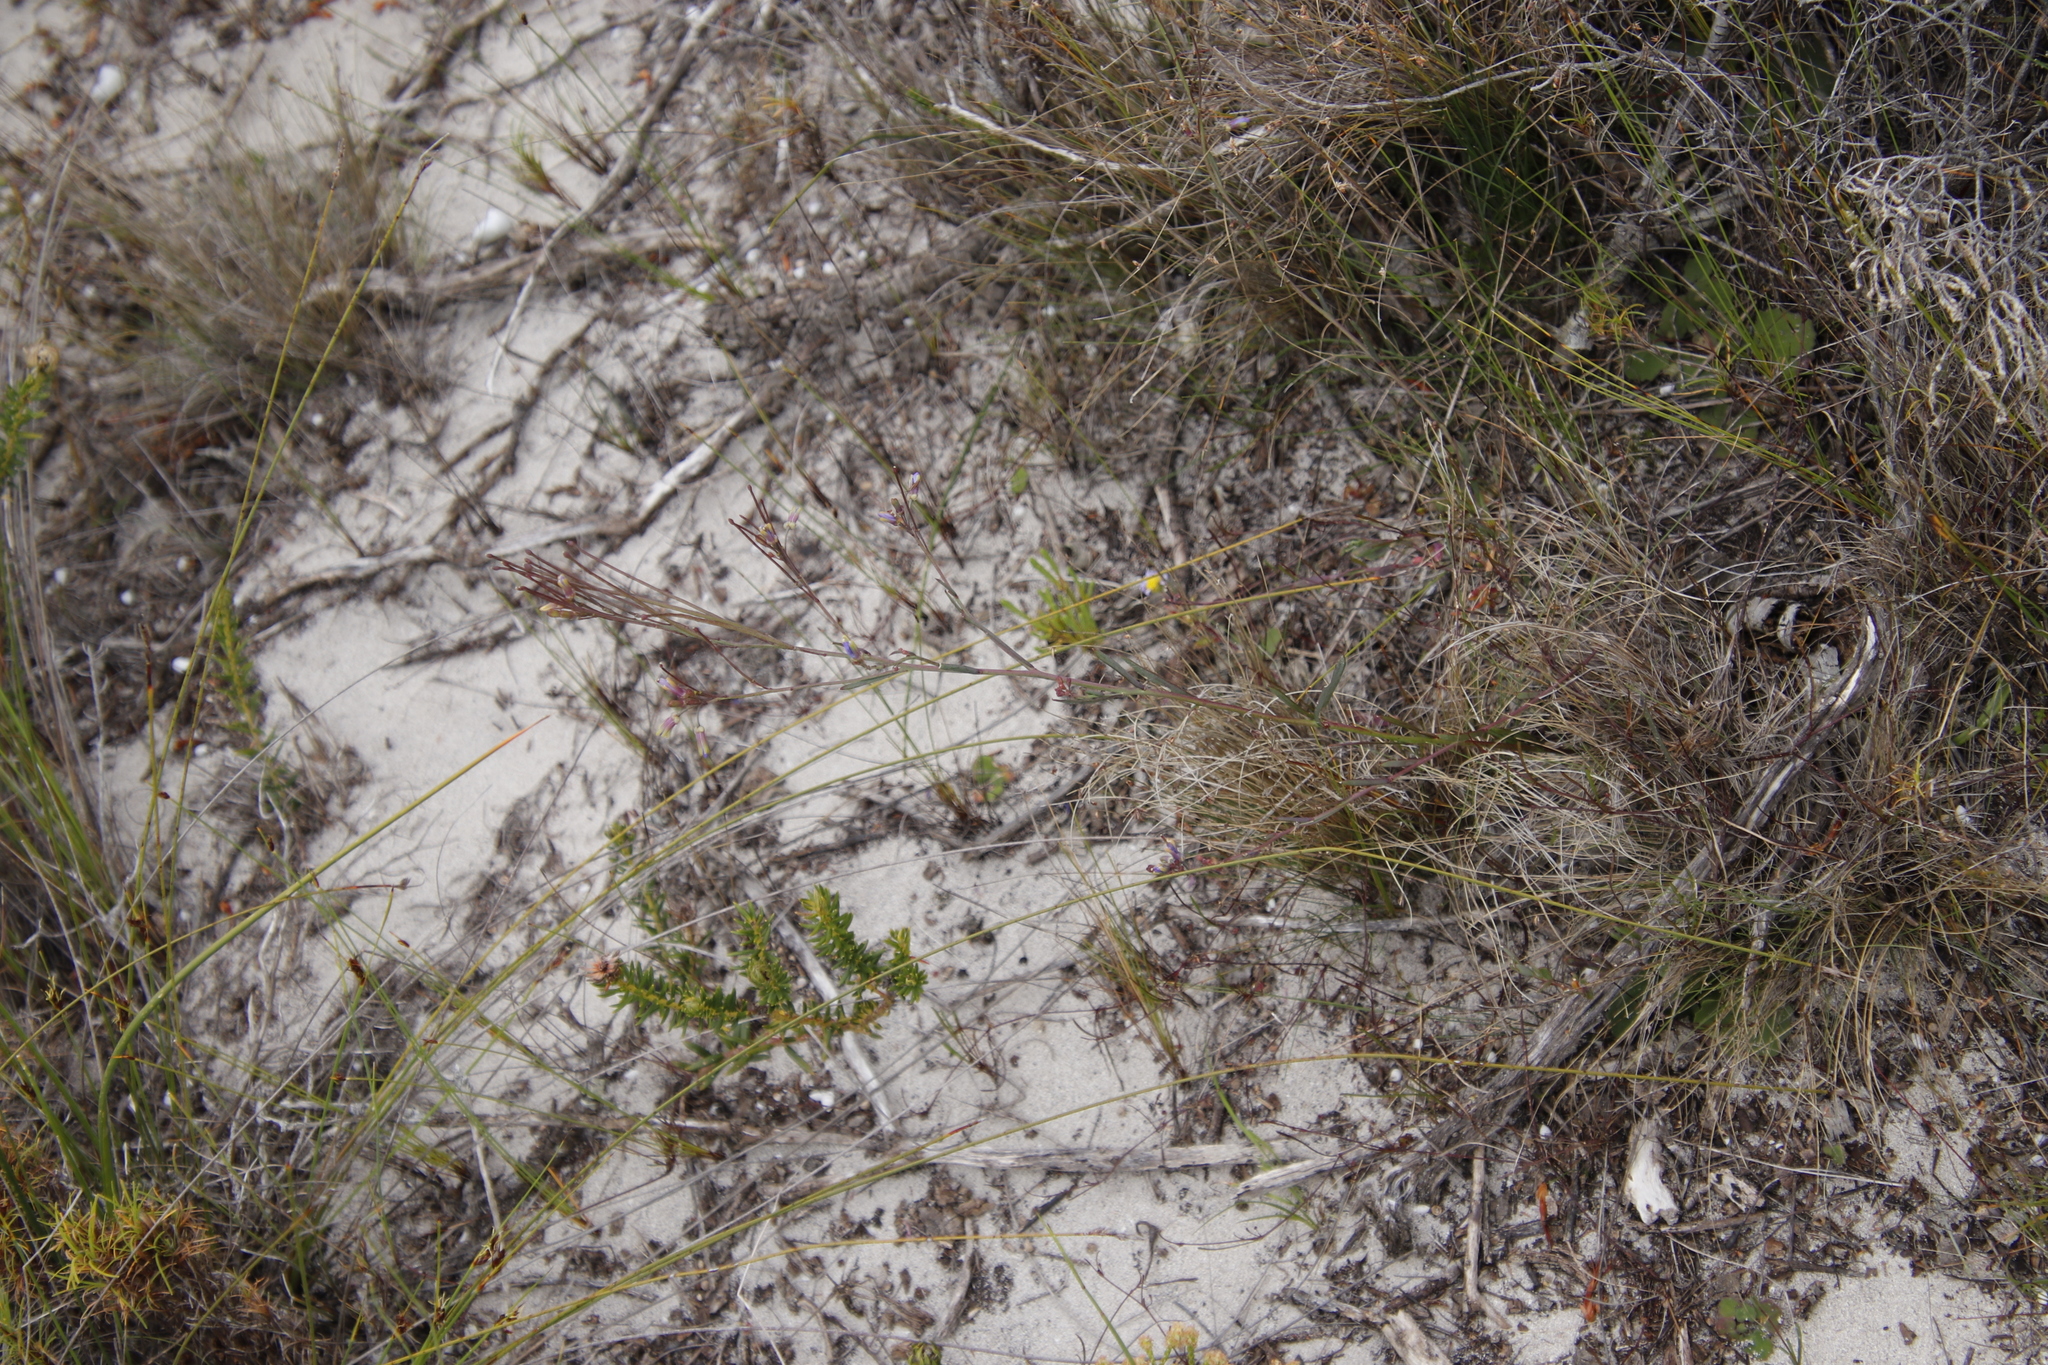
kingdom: Plantae
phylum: Tracheophyta
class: Magnoliopsida
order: Brassicales
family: Brassicaceae
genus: Heliophila
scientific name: Heliophila linearis
